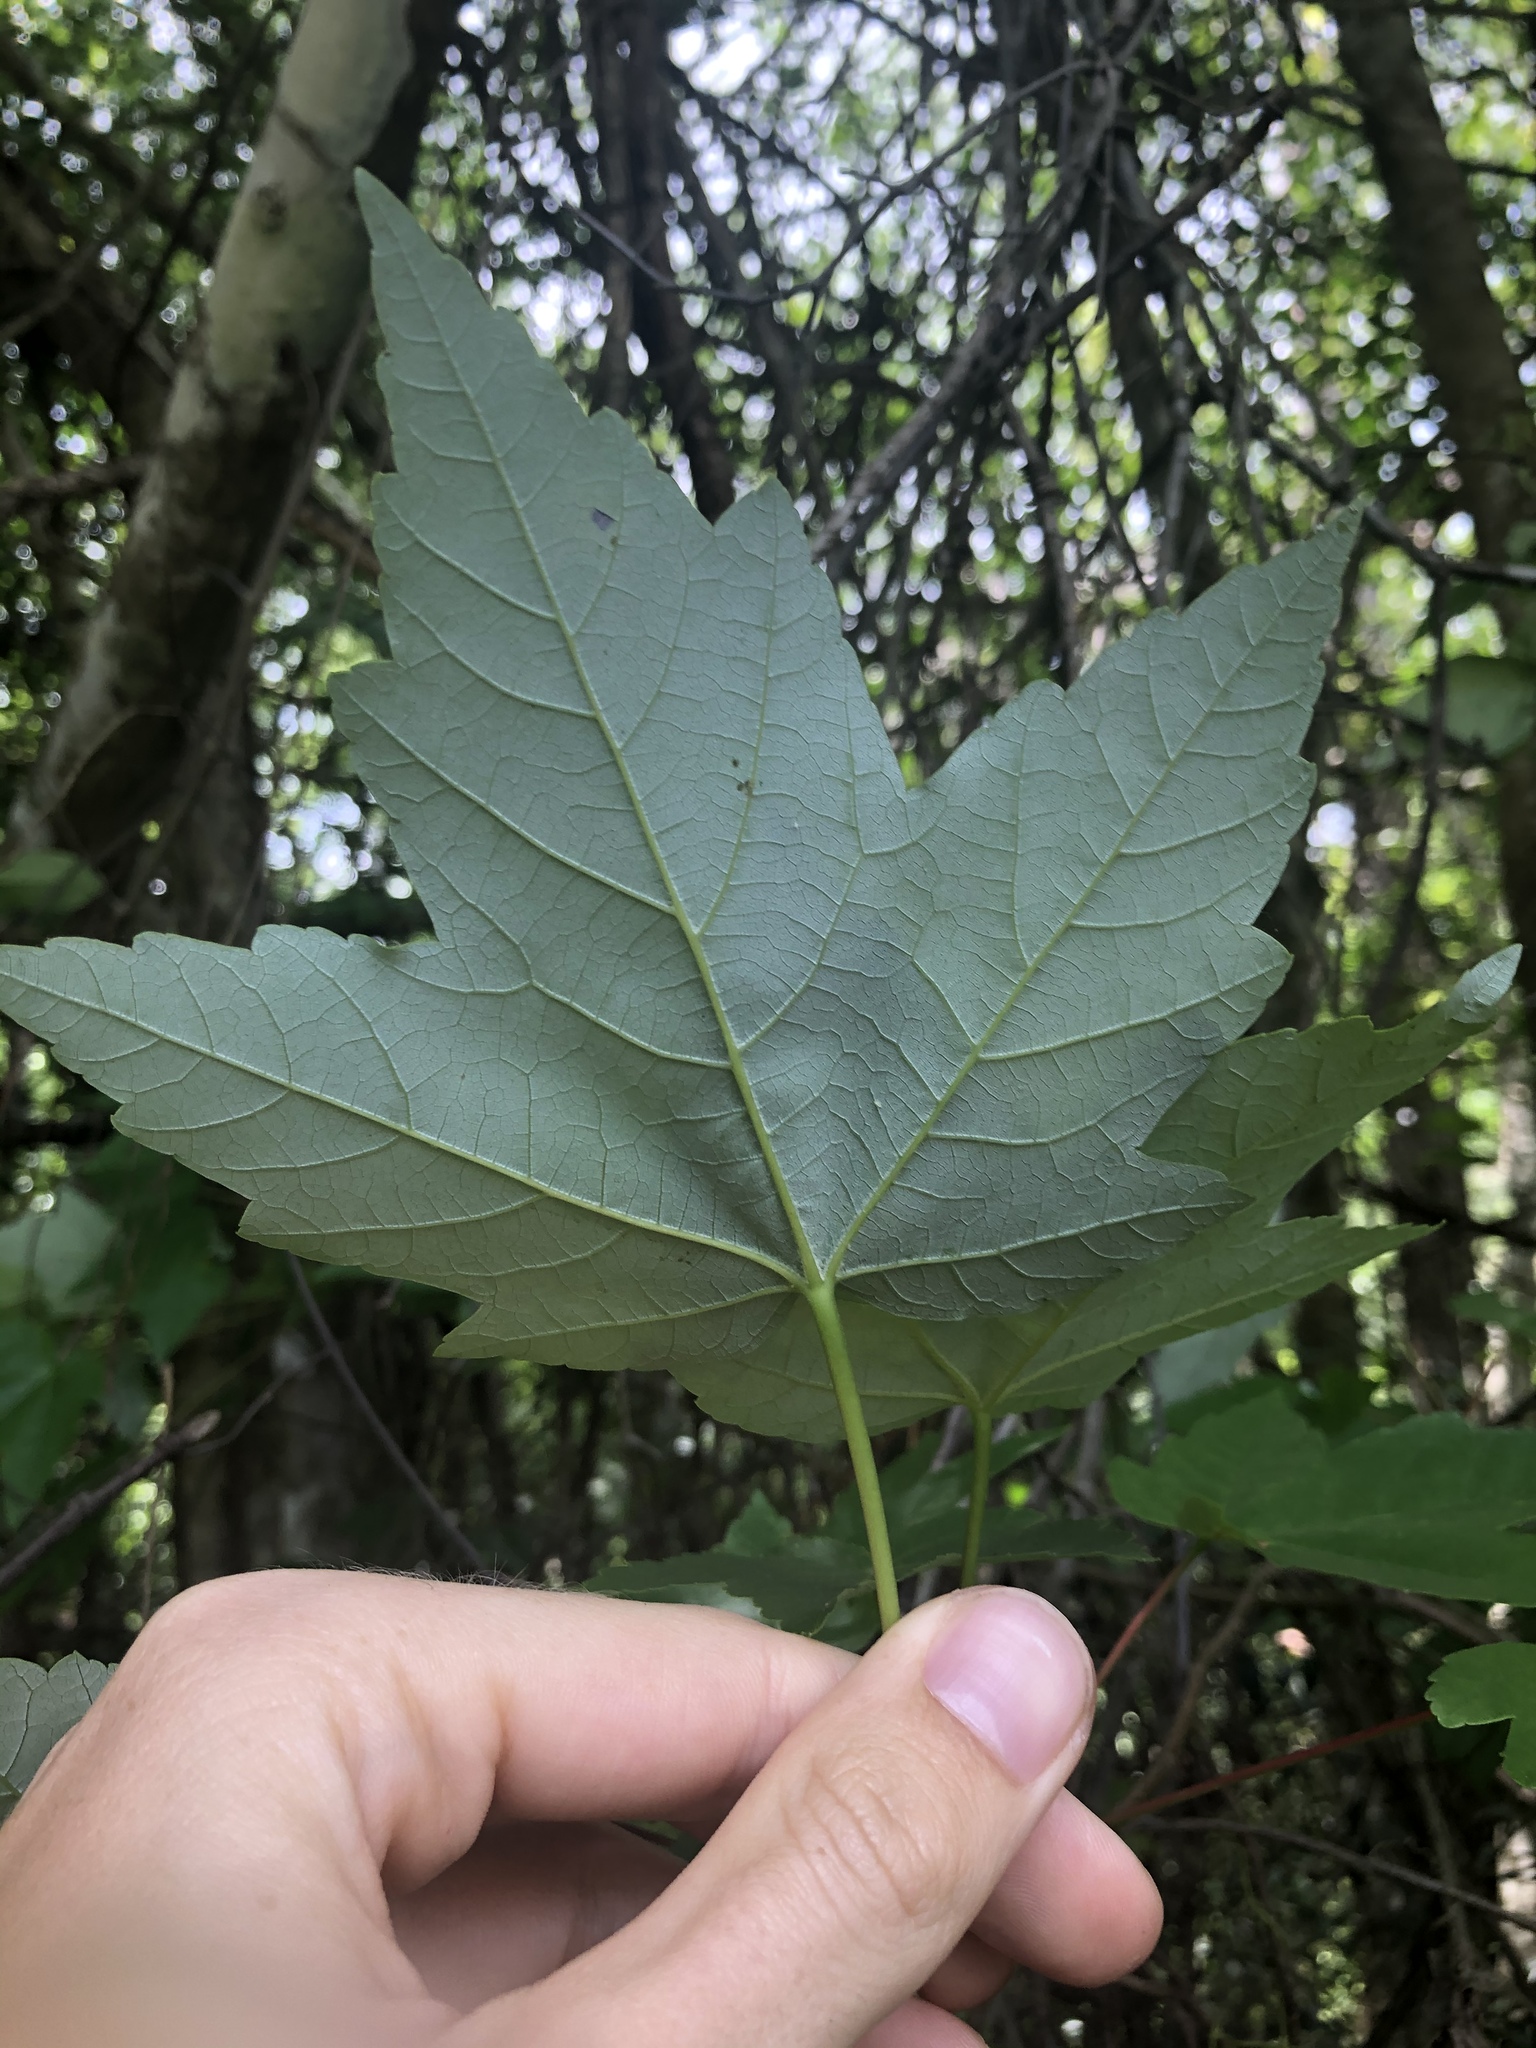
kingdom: Plantae
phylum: Tracheophyta
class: Magnoliopsida
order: Sapindales
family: Sapindaceae
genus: Acer
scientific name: Acer rubrum
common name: Red maple
